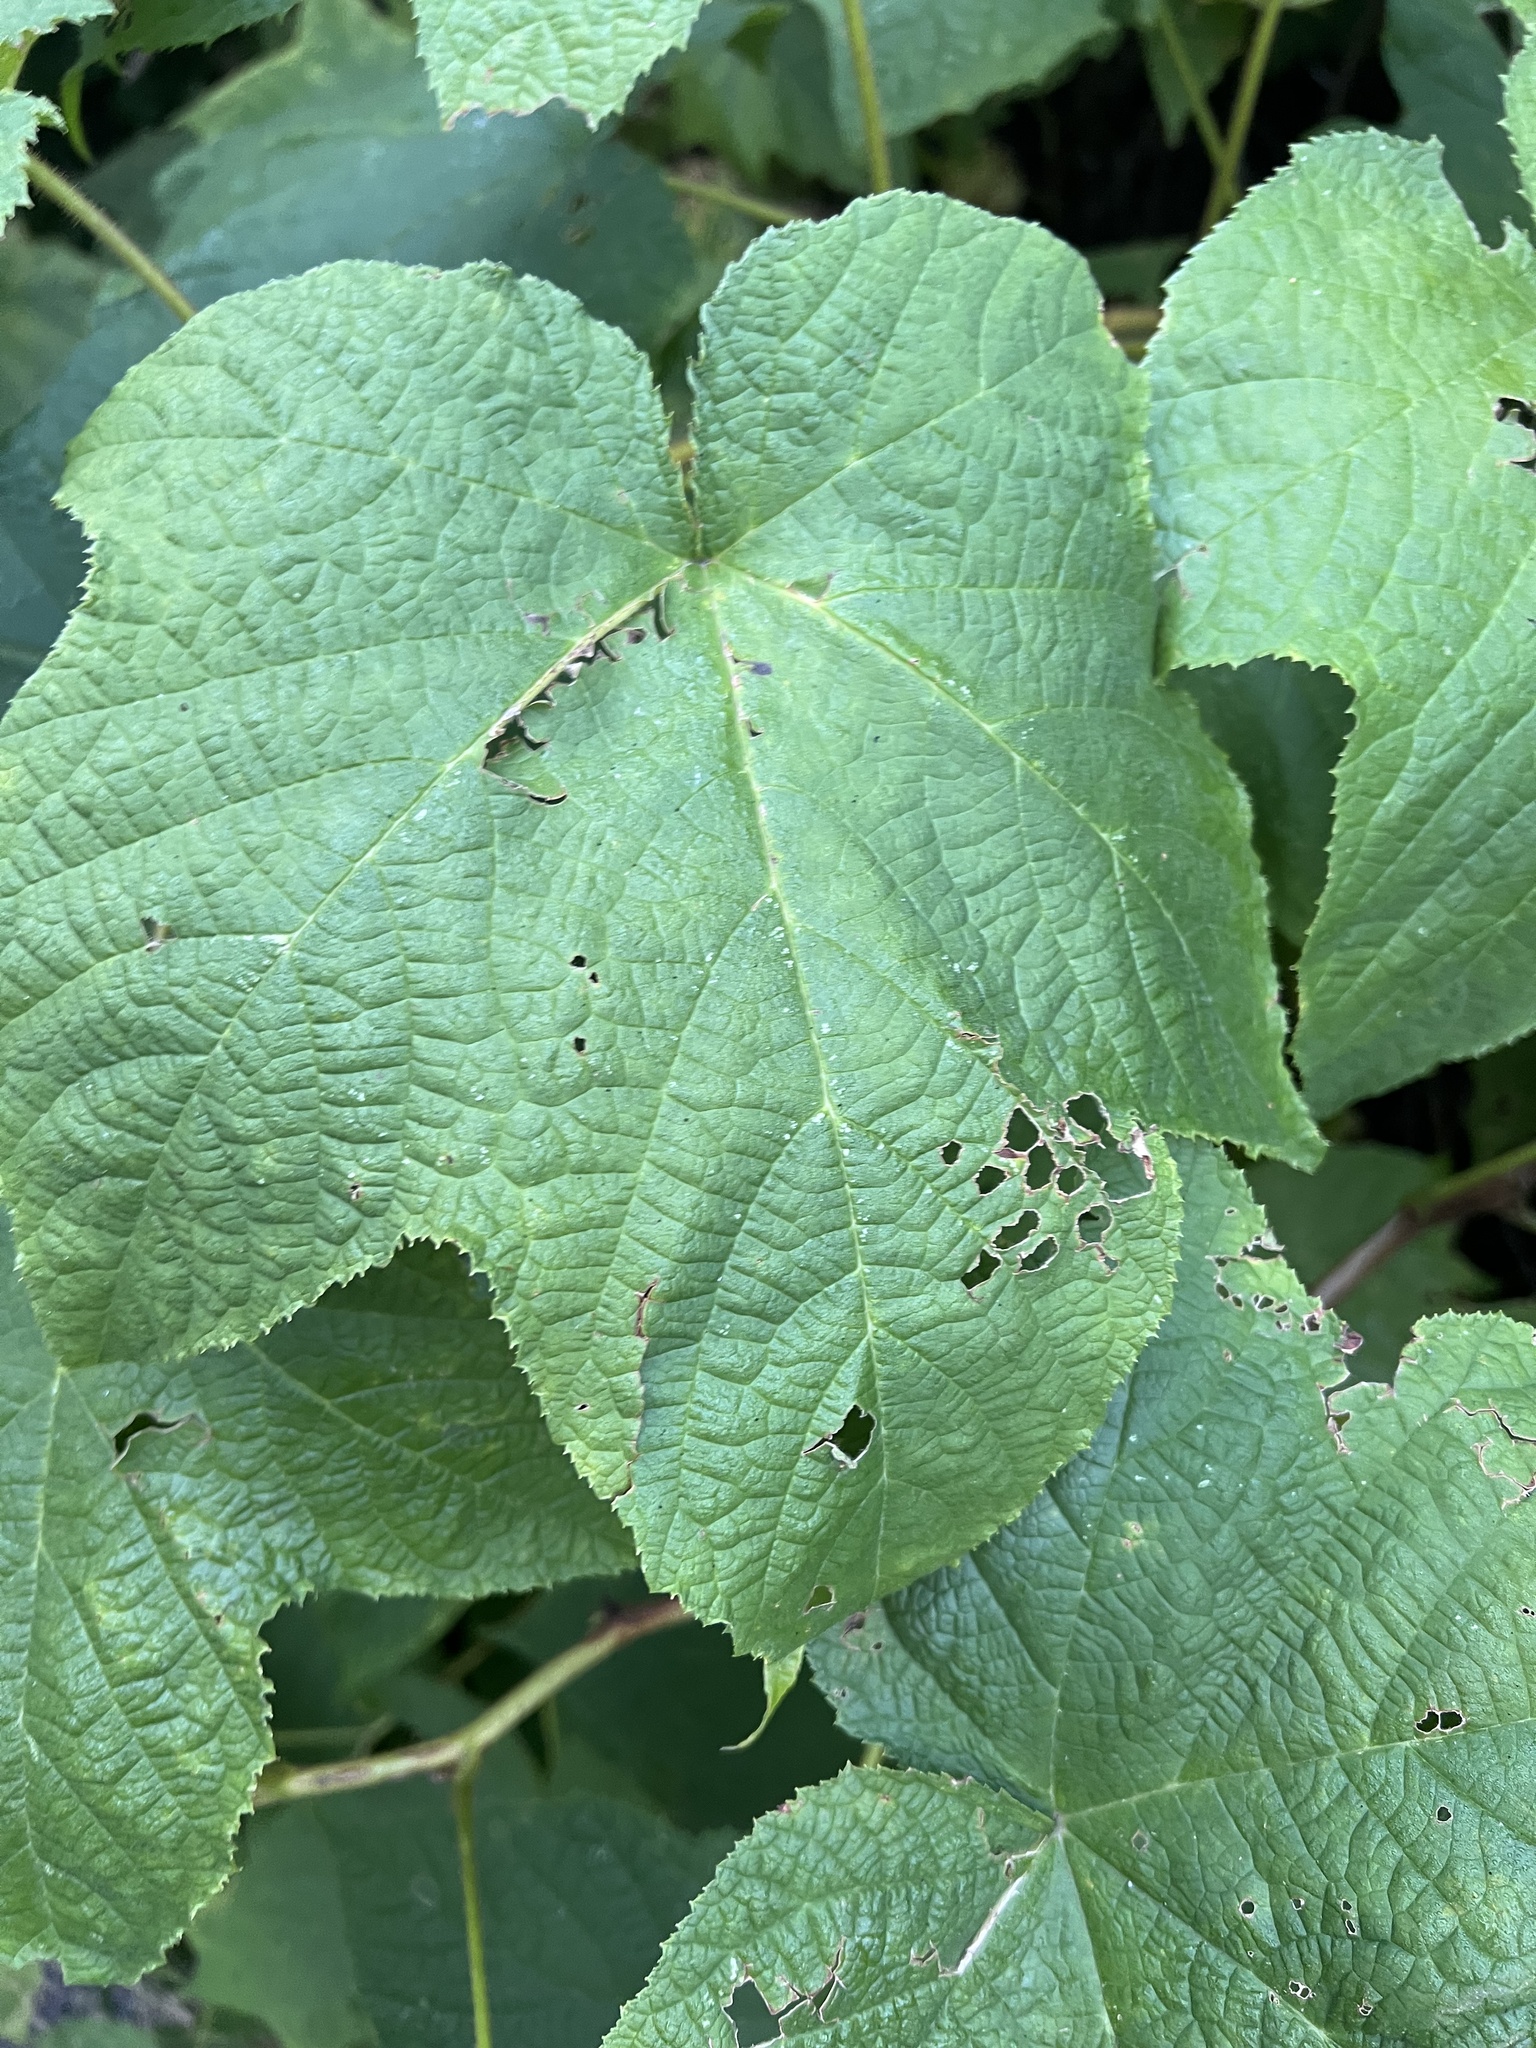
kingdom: Fungi
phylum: Ascomycota
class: Leotiomycetes
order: Helotiales
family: Erysiphaceae
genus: Podosphaera
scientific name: Podosphaera aphanis
